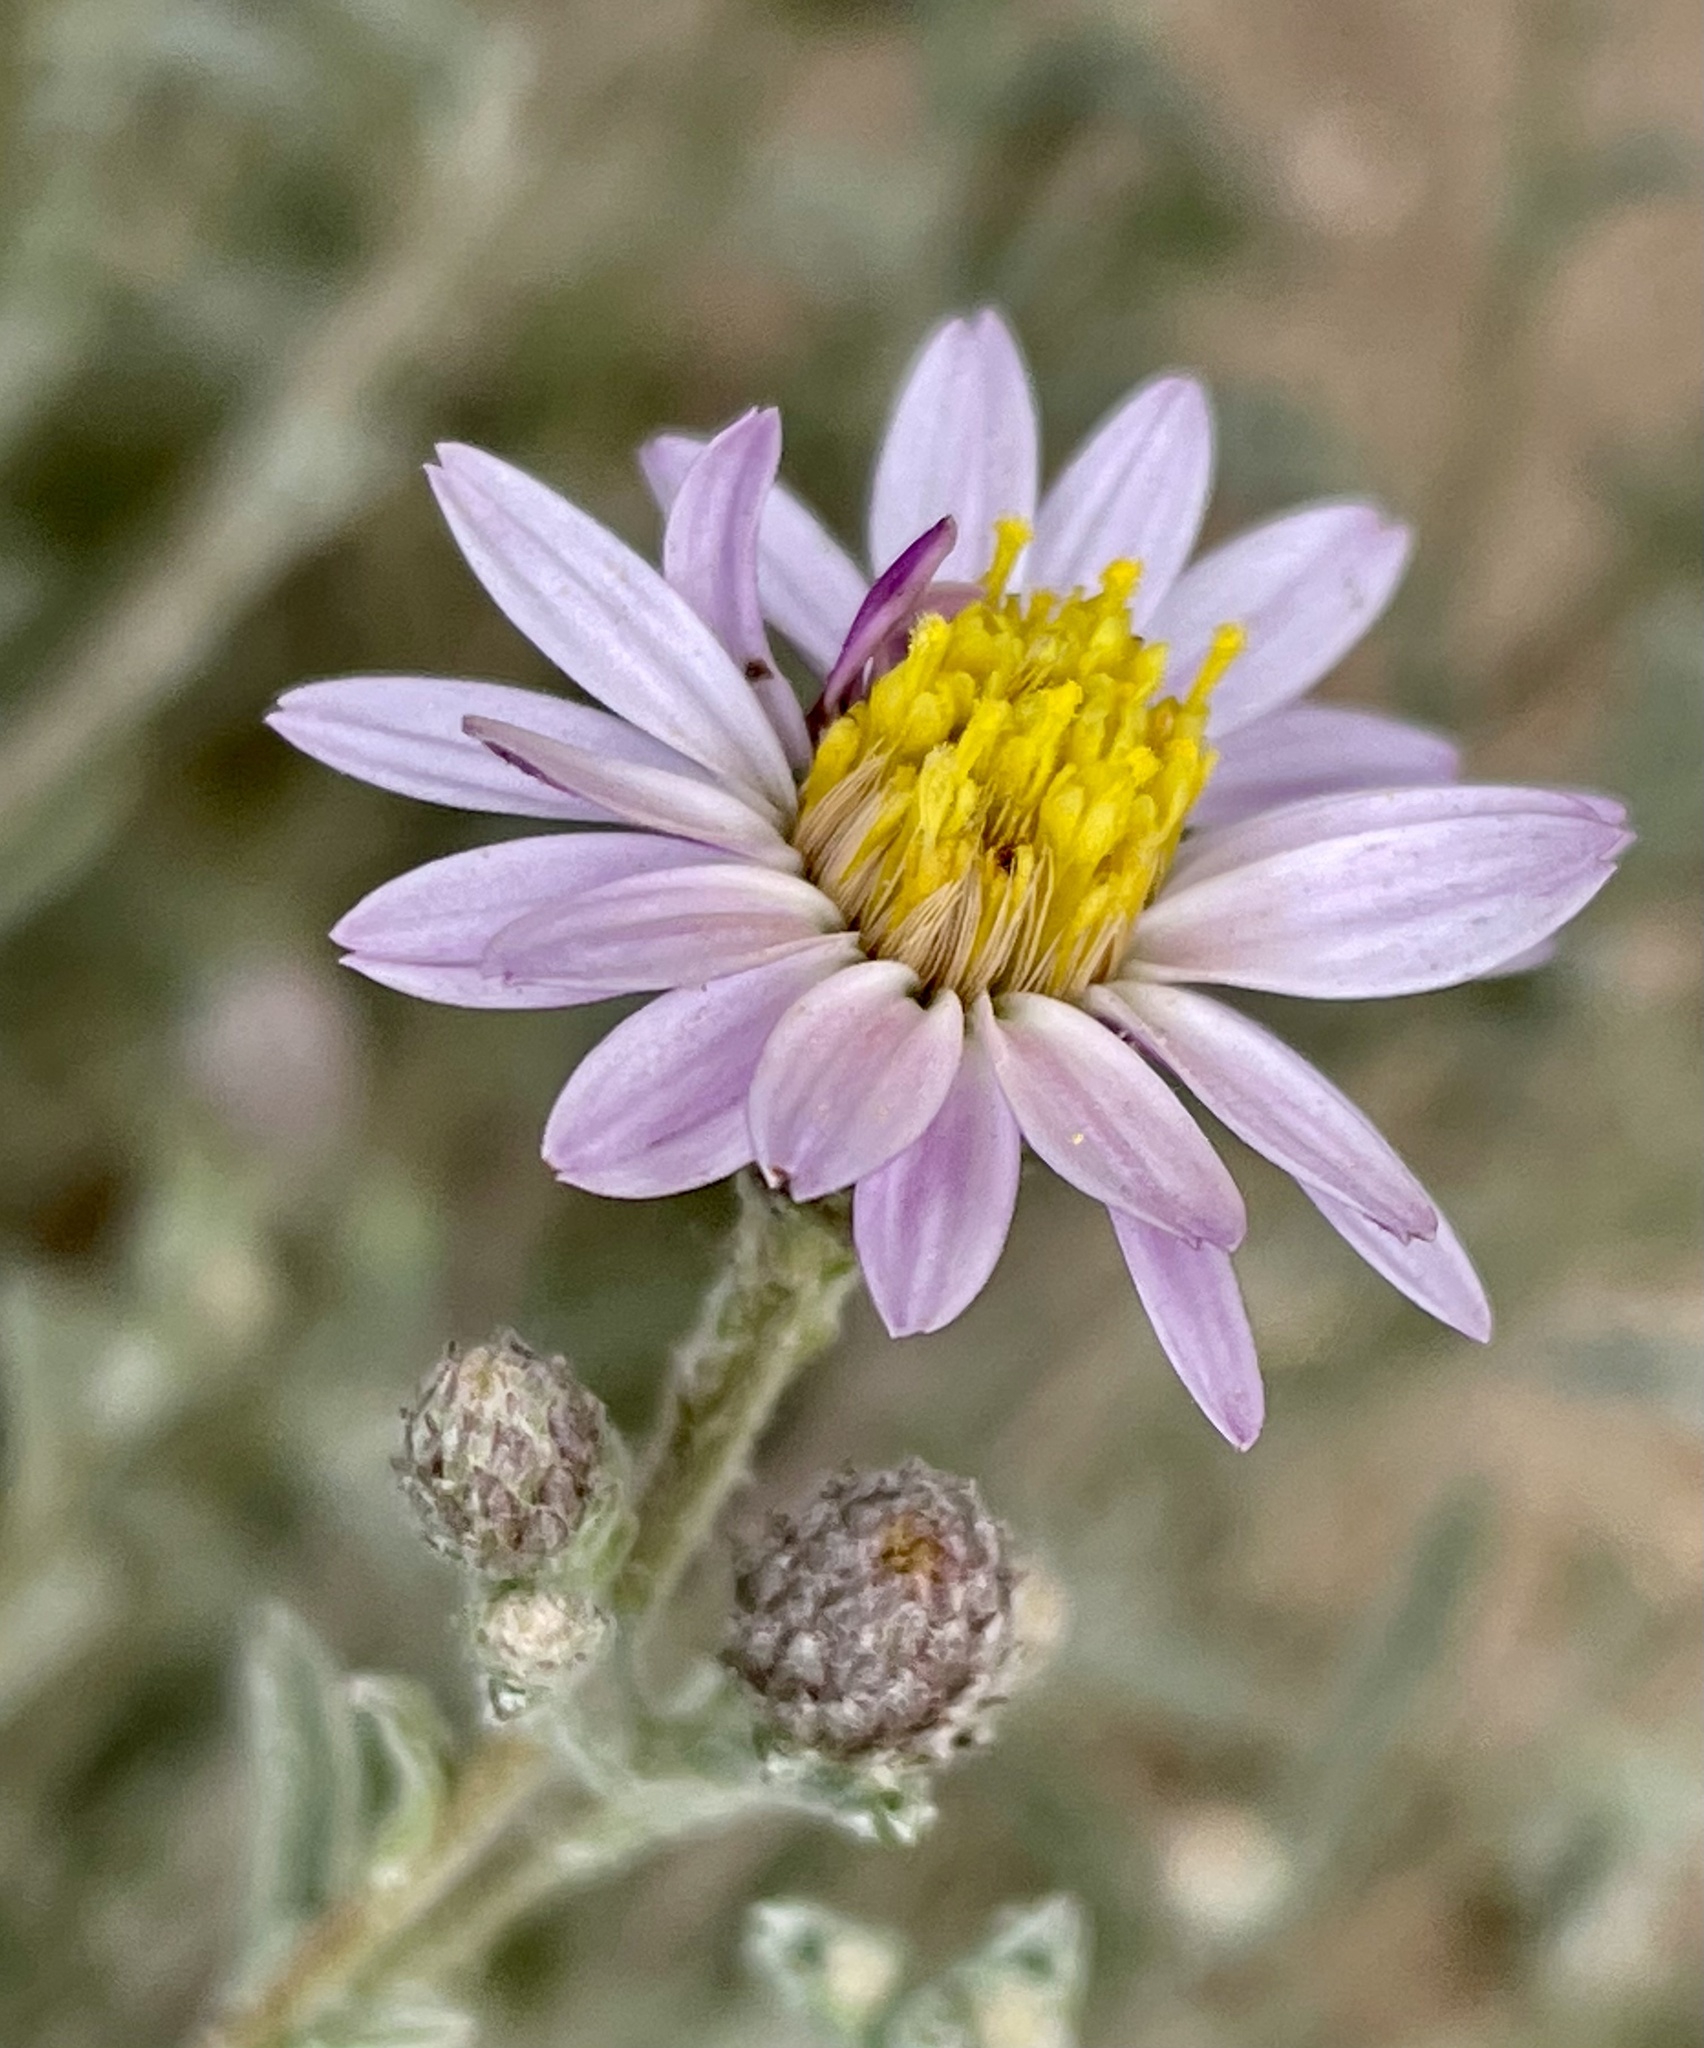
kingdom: Plantae
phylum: Tracheophyta
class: Magnoliopsida
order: Asterales
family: Asteraceae
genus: Corethrogyne
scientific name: Corethrogyne filaginifolia
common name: Sand-aster
